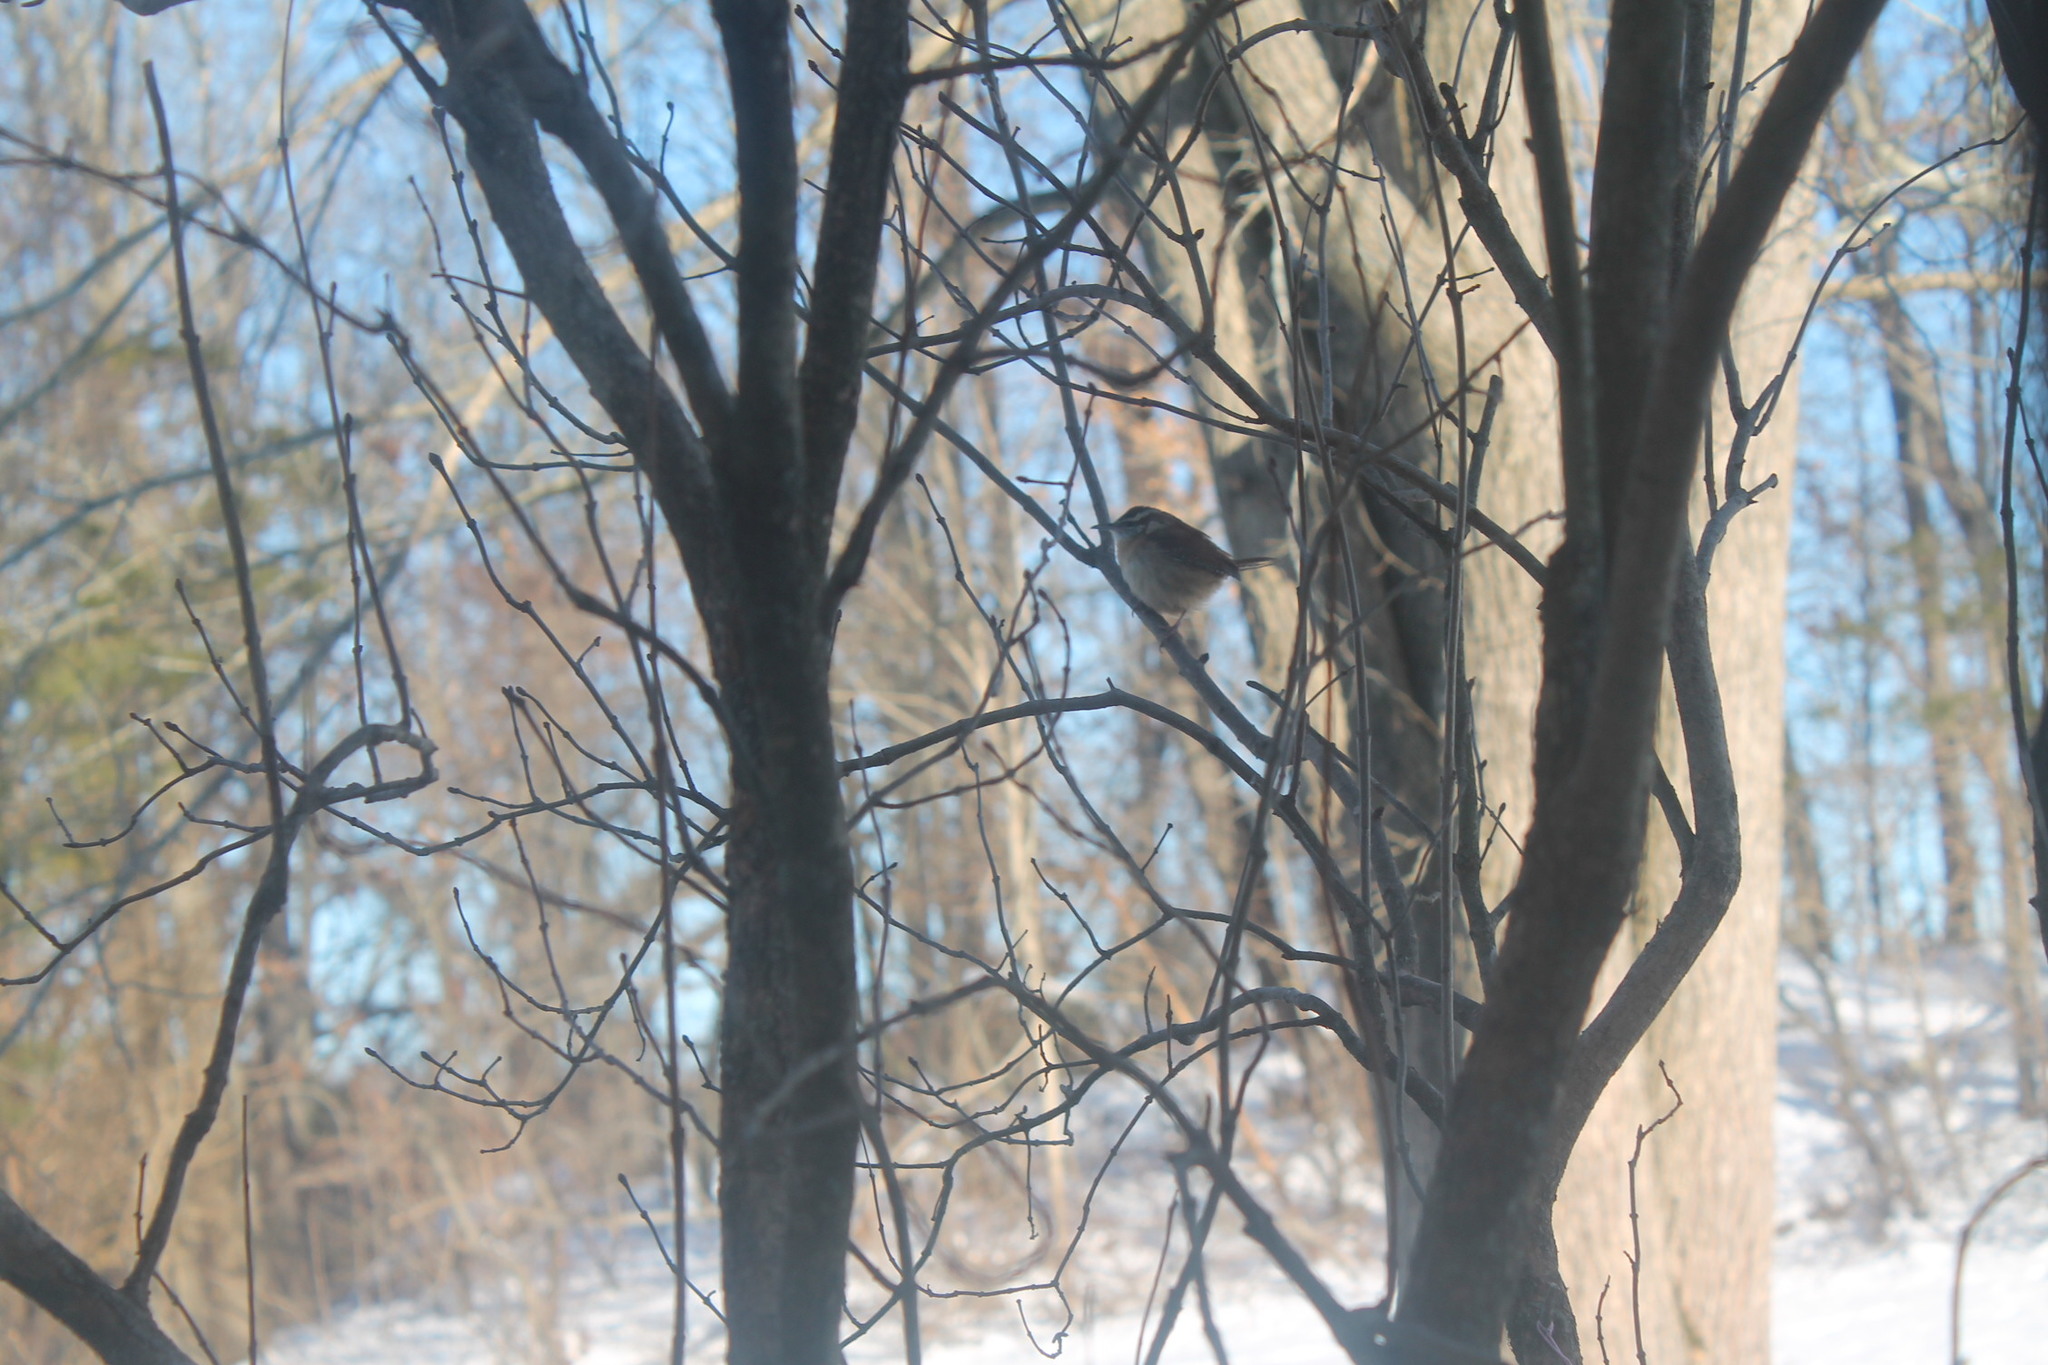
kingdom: Animalia
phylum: Chordata
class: Aves
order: Passeriformes
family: Troglodytidae
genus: Thryothorus
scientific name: Thryothorus ludovicianus
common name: Carolina wren
